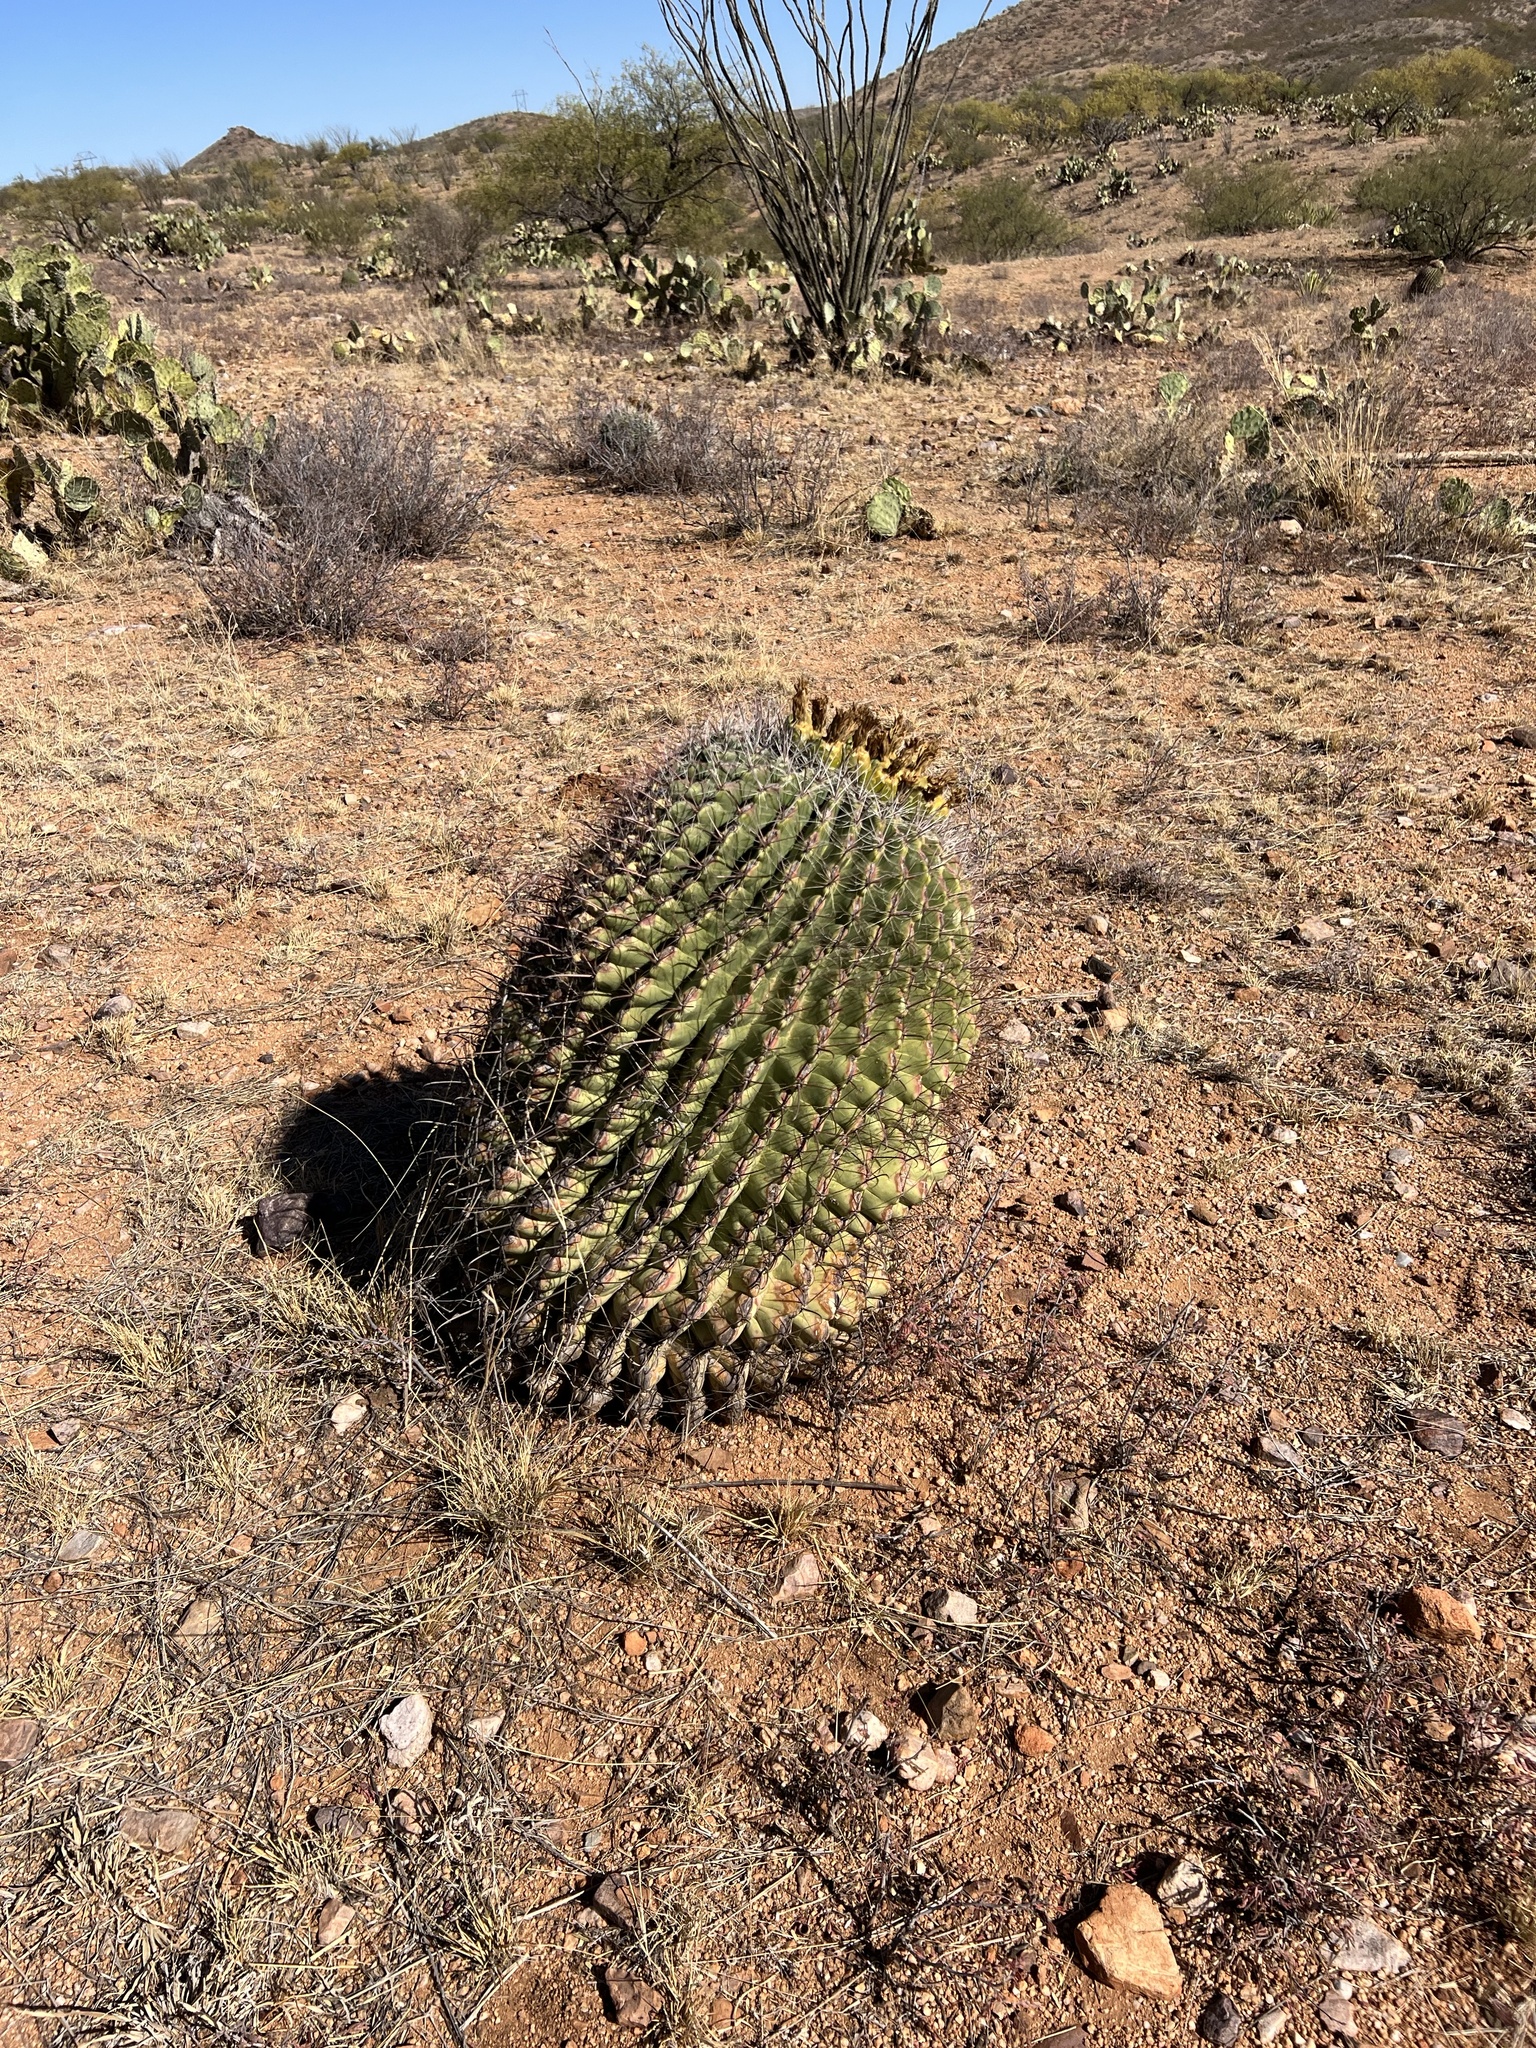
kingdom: Plantae
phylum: Tracheophyta
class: Magnoliopsida
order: Caryophyllales
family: Cactaceae
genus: Ferocactus
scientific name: Ferocactus wislizeni
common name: Candy barrel cactus
